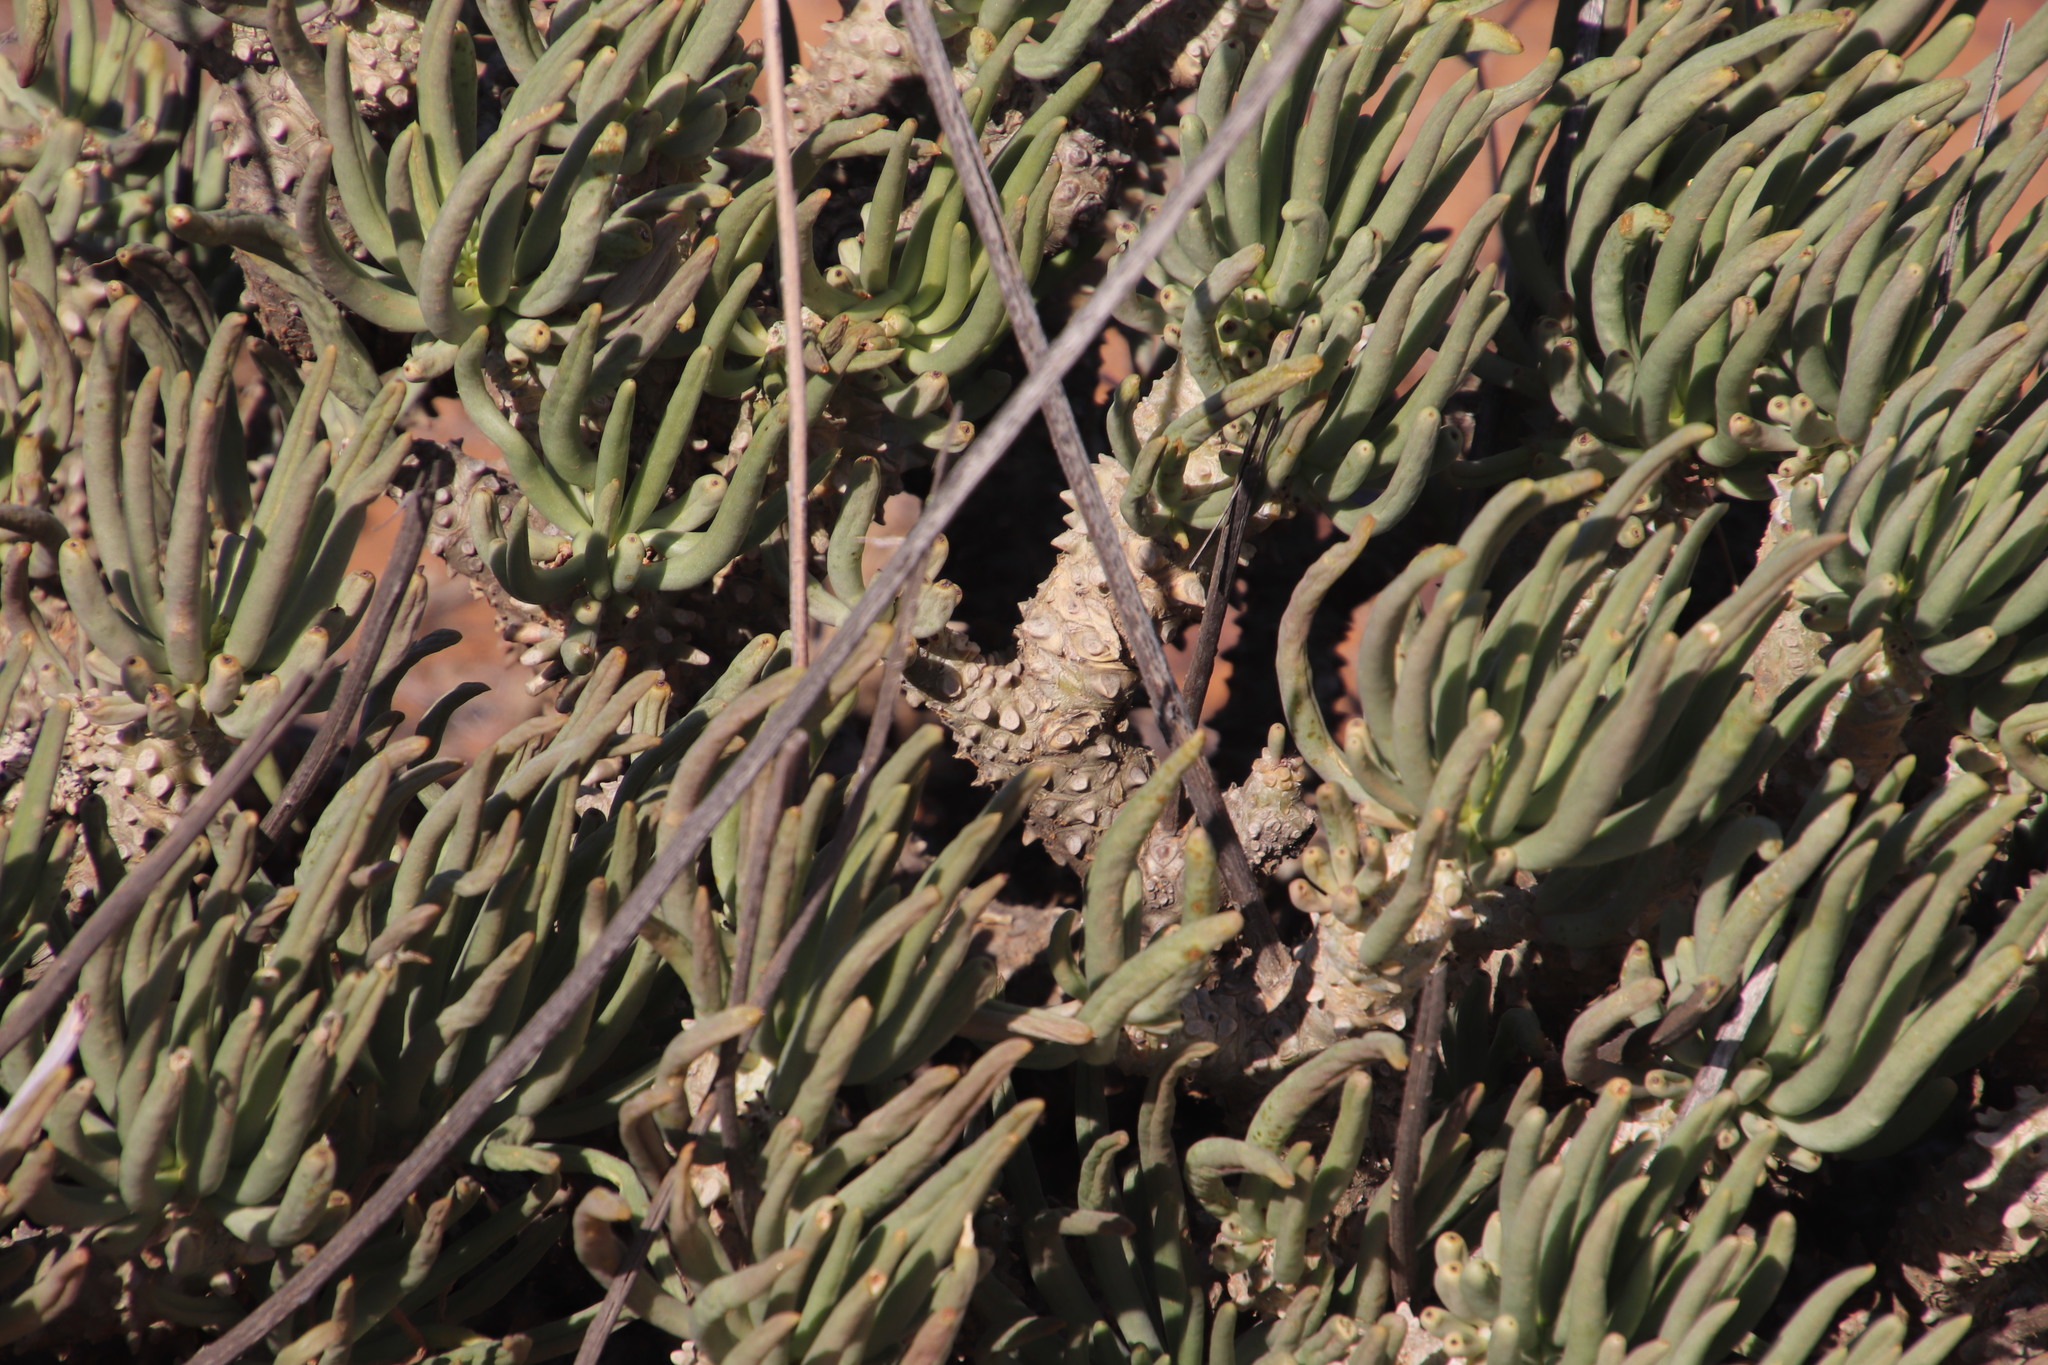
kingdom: Plantae
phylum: Tracheophyta
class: Magnoliopsida
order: Saxifragales
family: Crassulaceae
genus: Tylecodon
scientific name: Tylecodon wallichii
